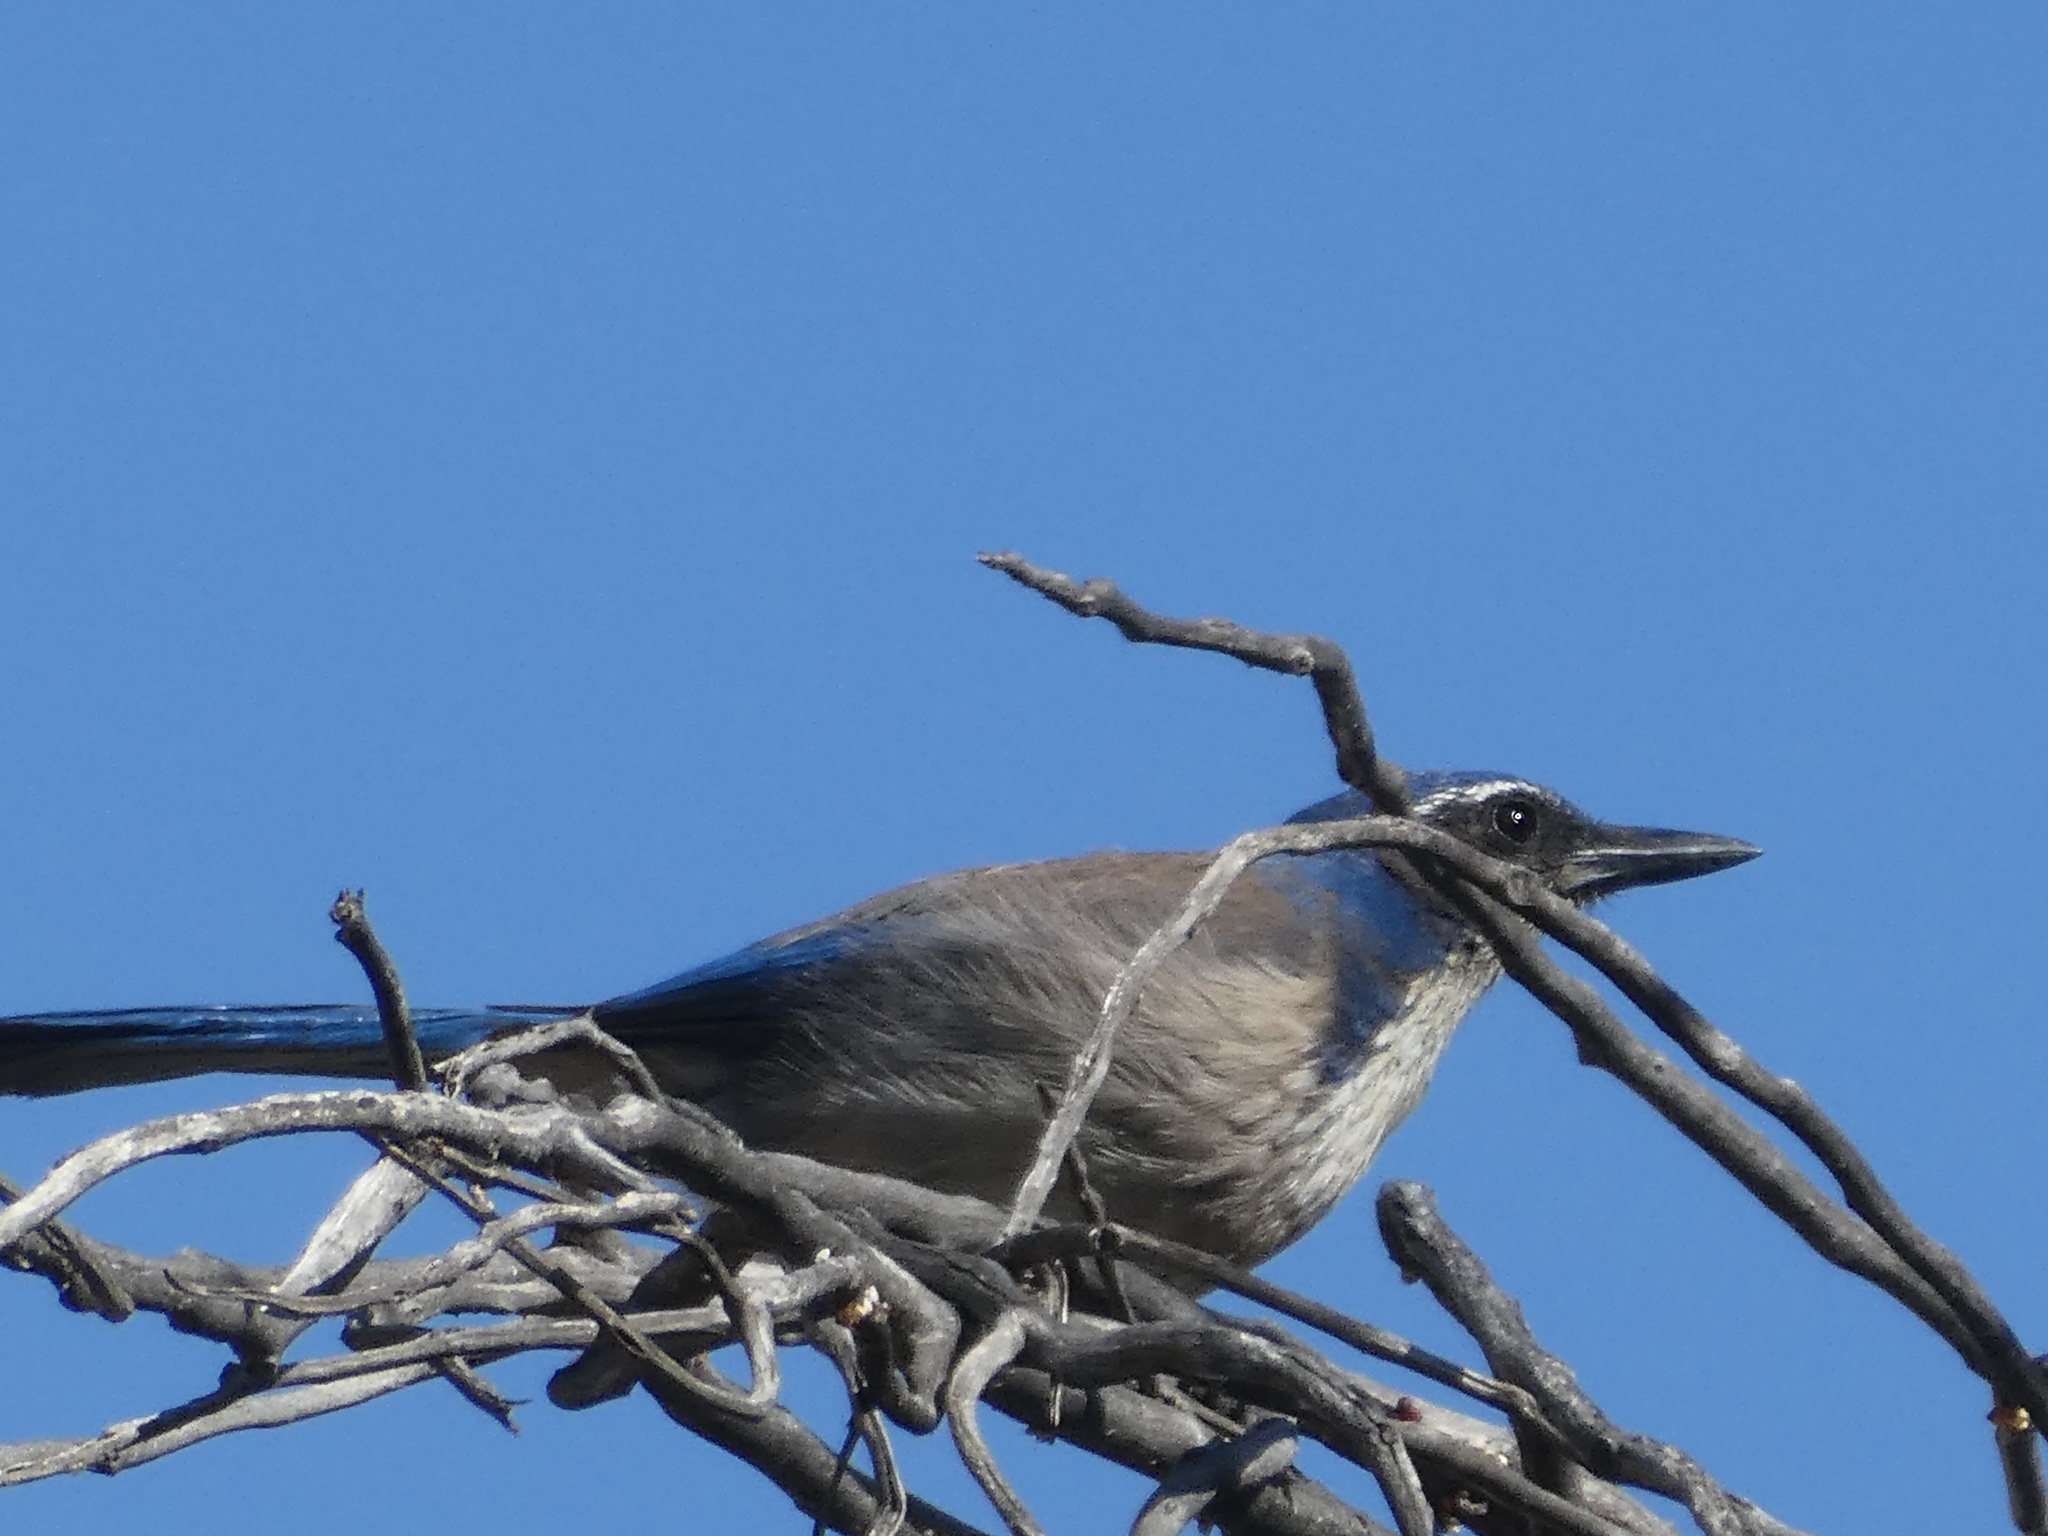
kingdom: Animalia
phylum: Chordata
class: Aves
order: Passeriformes
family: Corvidae
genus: Aphelocoma
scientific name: Aphelocoma californica
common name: California scrub-jay
